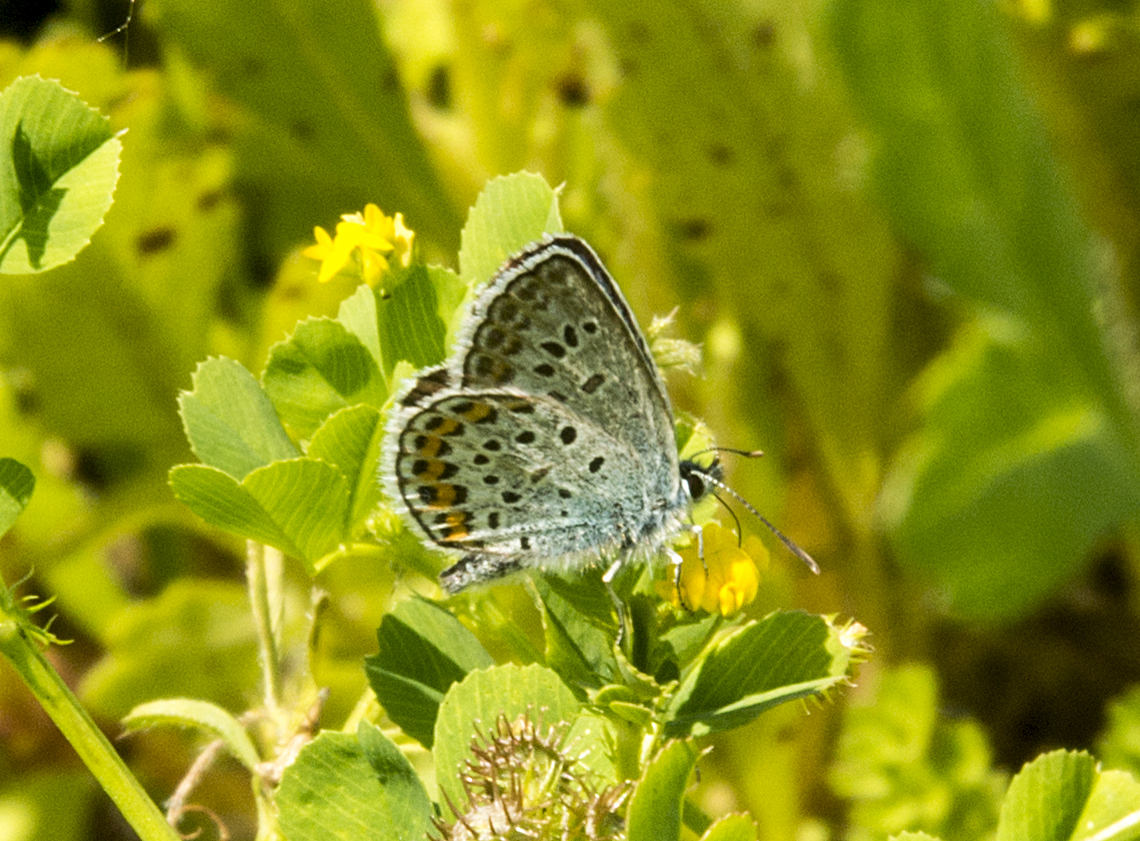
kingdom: Animalia
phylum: Arthropoda
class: Insecta
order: Lepidoptera
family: Lycaenidae
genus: Plebejus
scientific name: Plebejus argus
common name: Silver-studded blue
